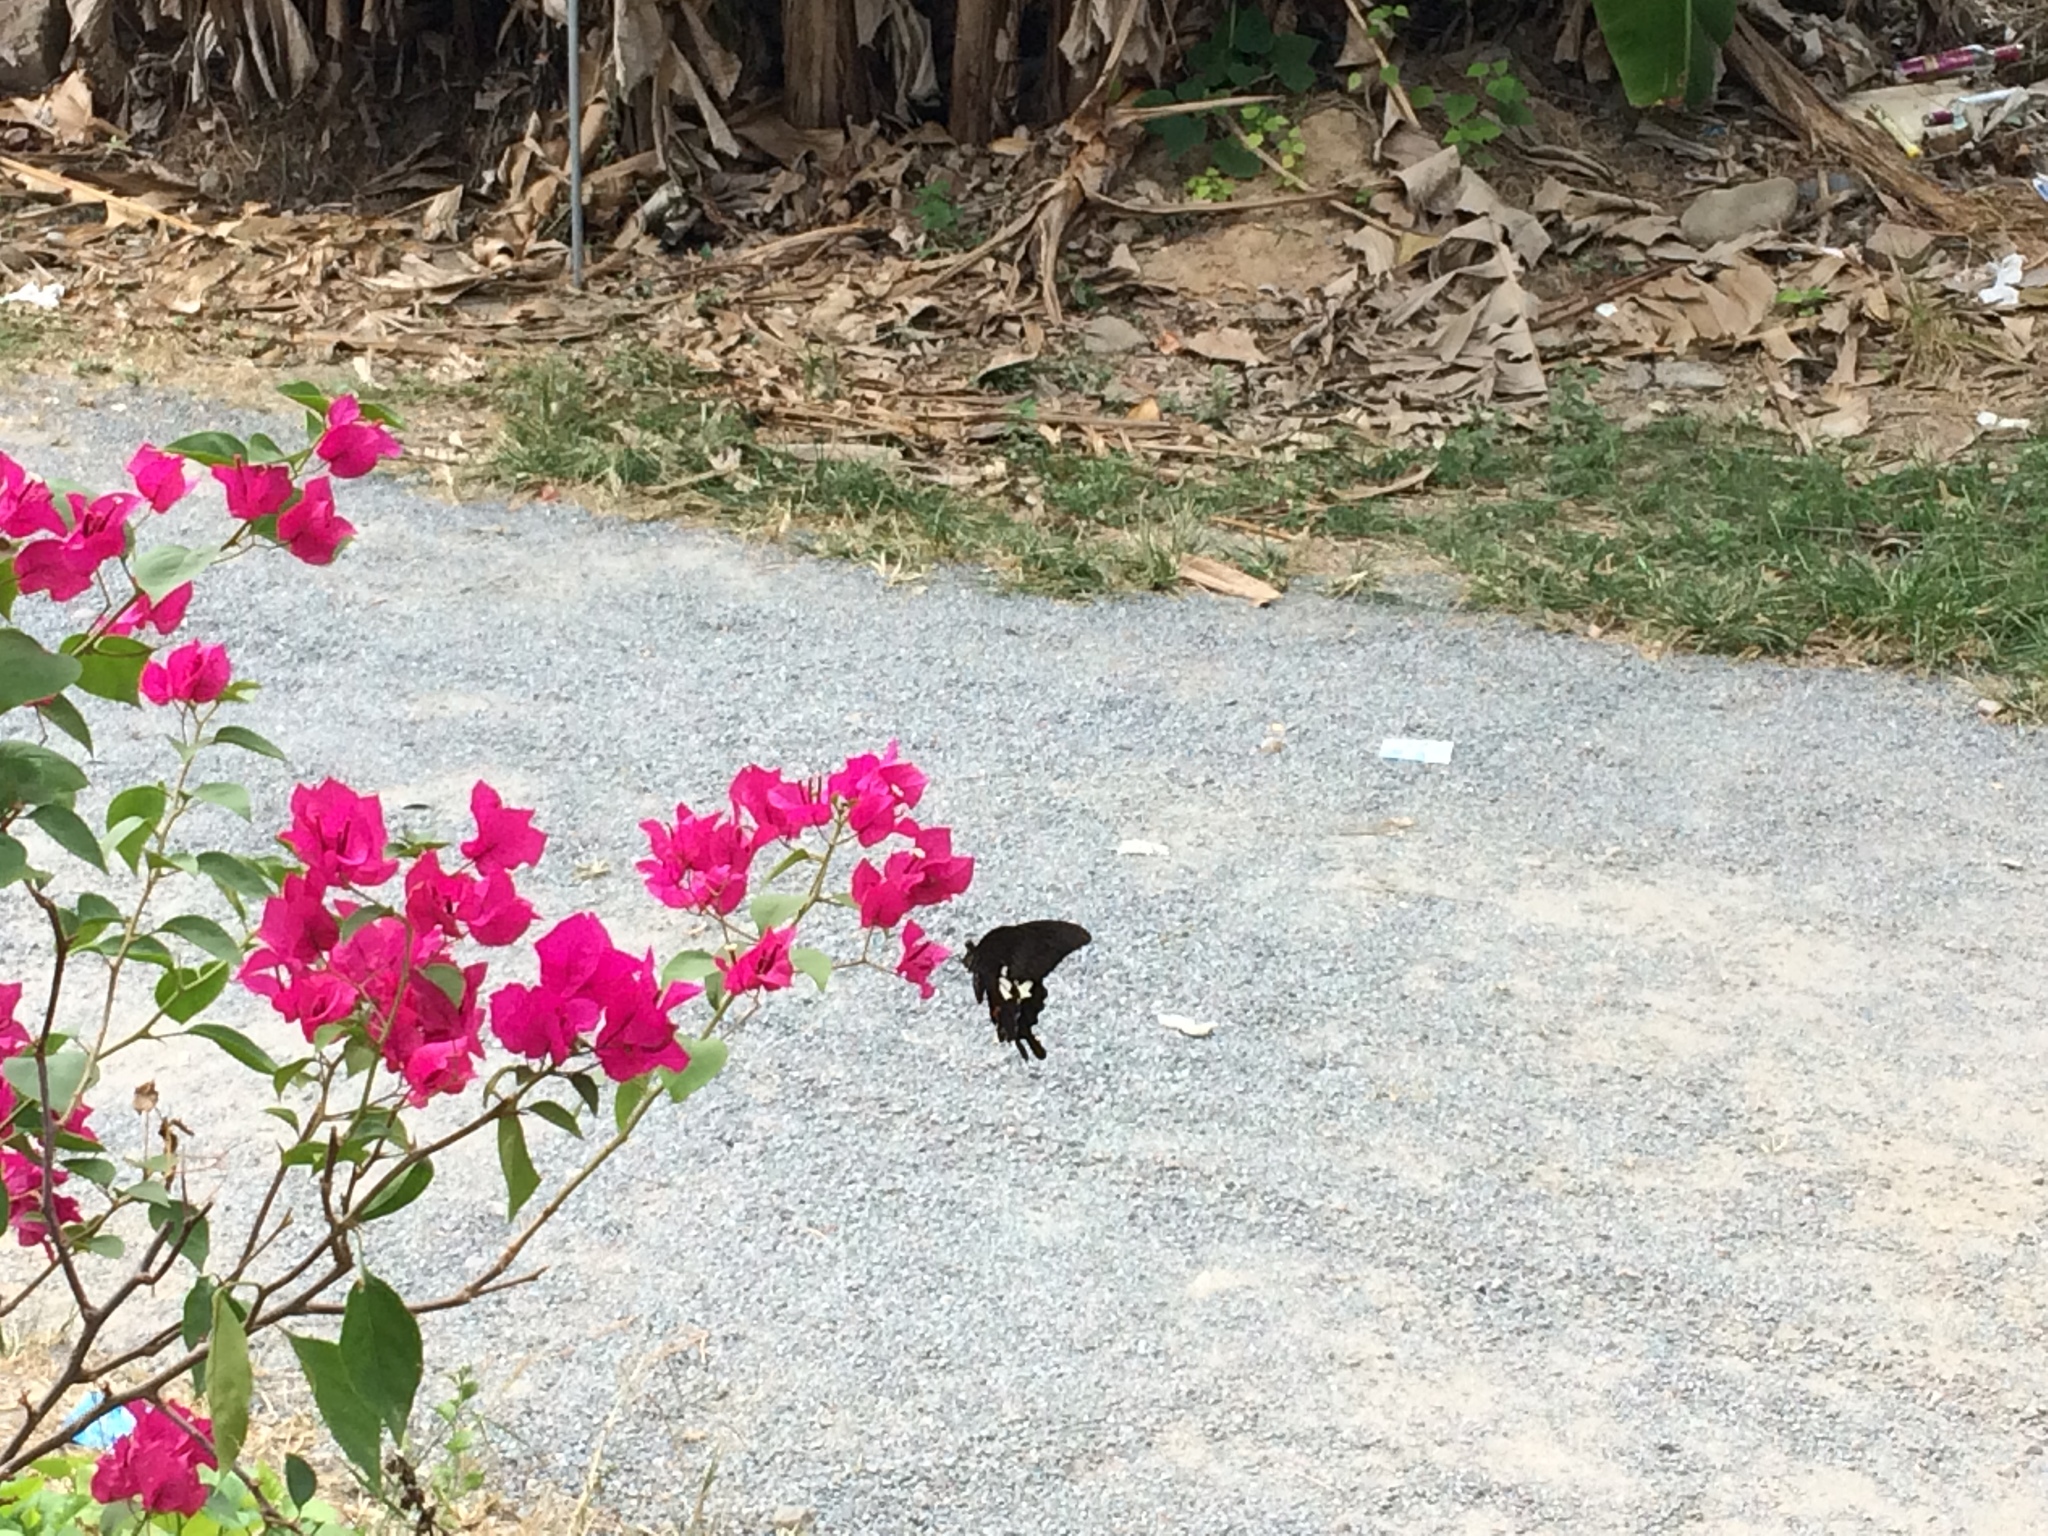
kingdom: Animalia
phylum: Arthropoda
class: Insecta
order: Lepidoptera
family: Papilionidae
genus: Papilio
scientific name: Papilio helenus
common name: Red helen
